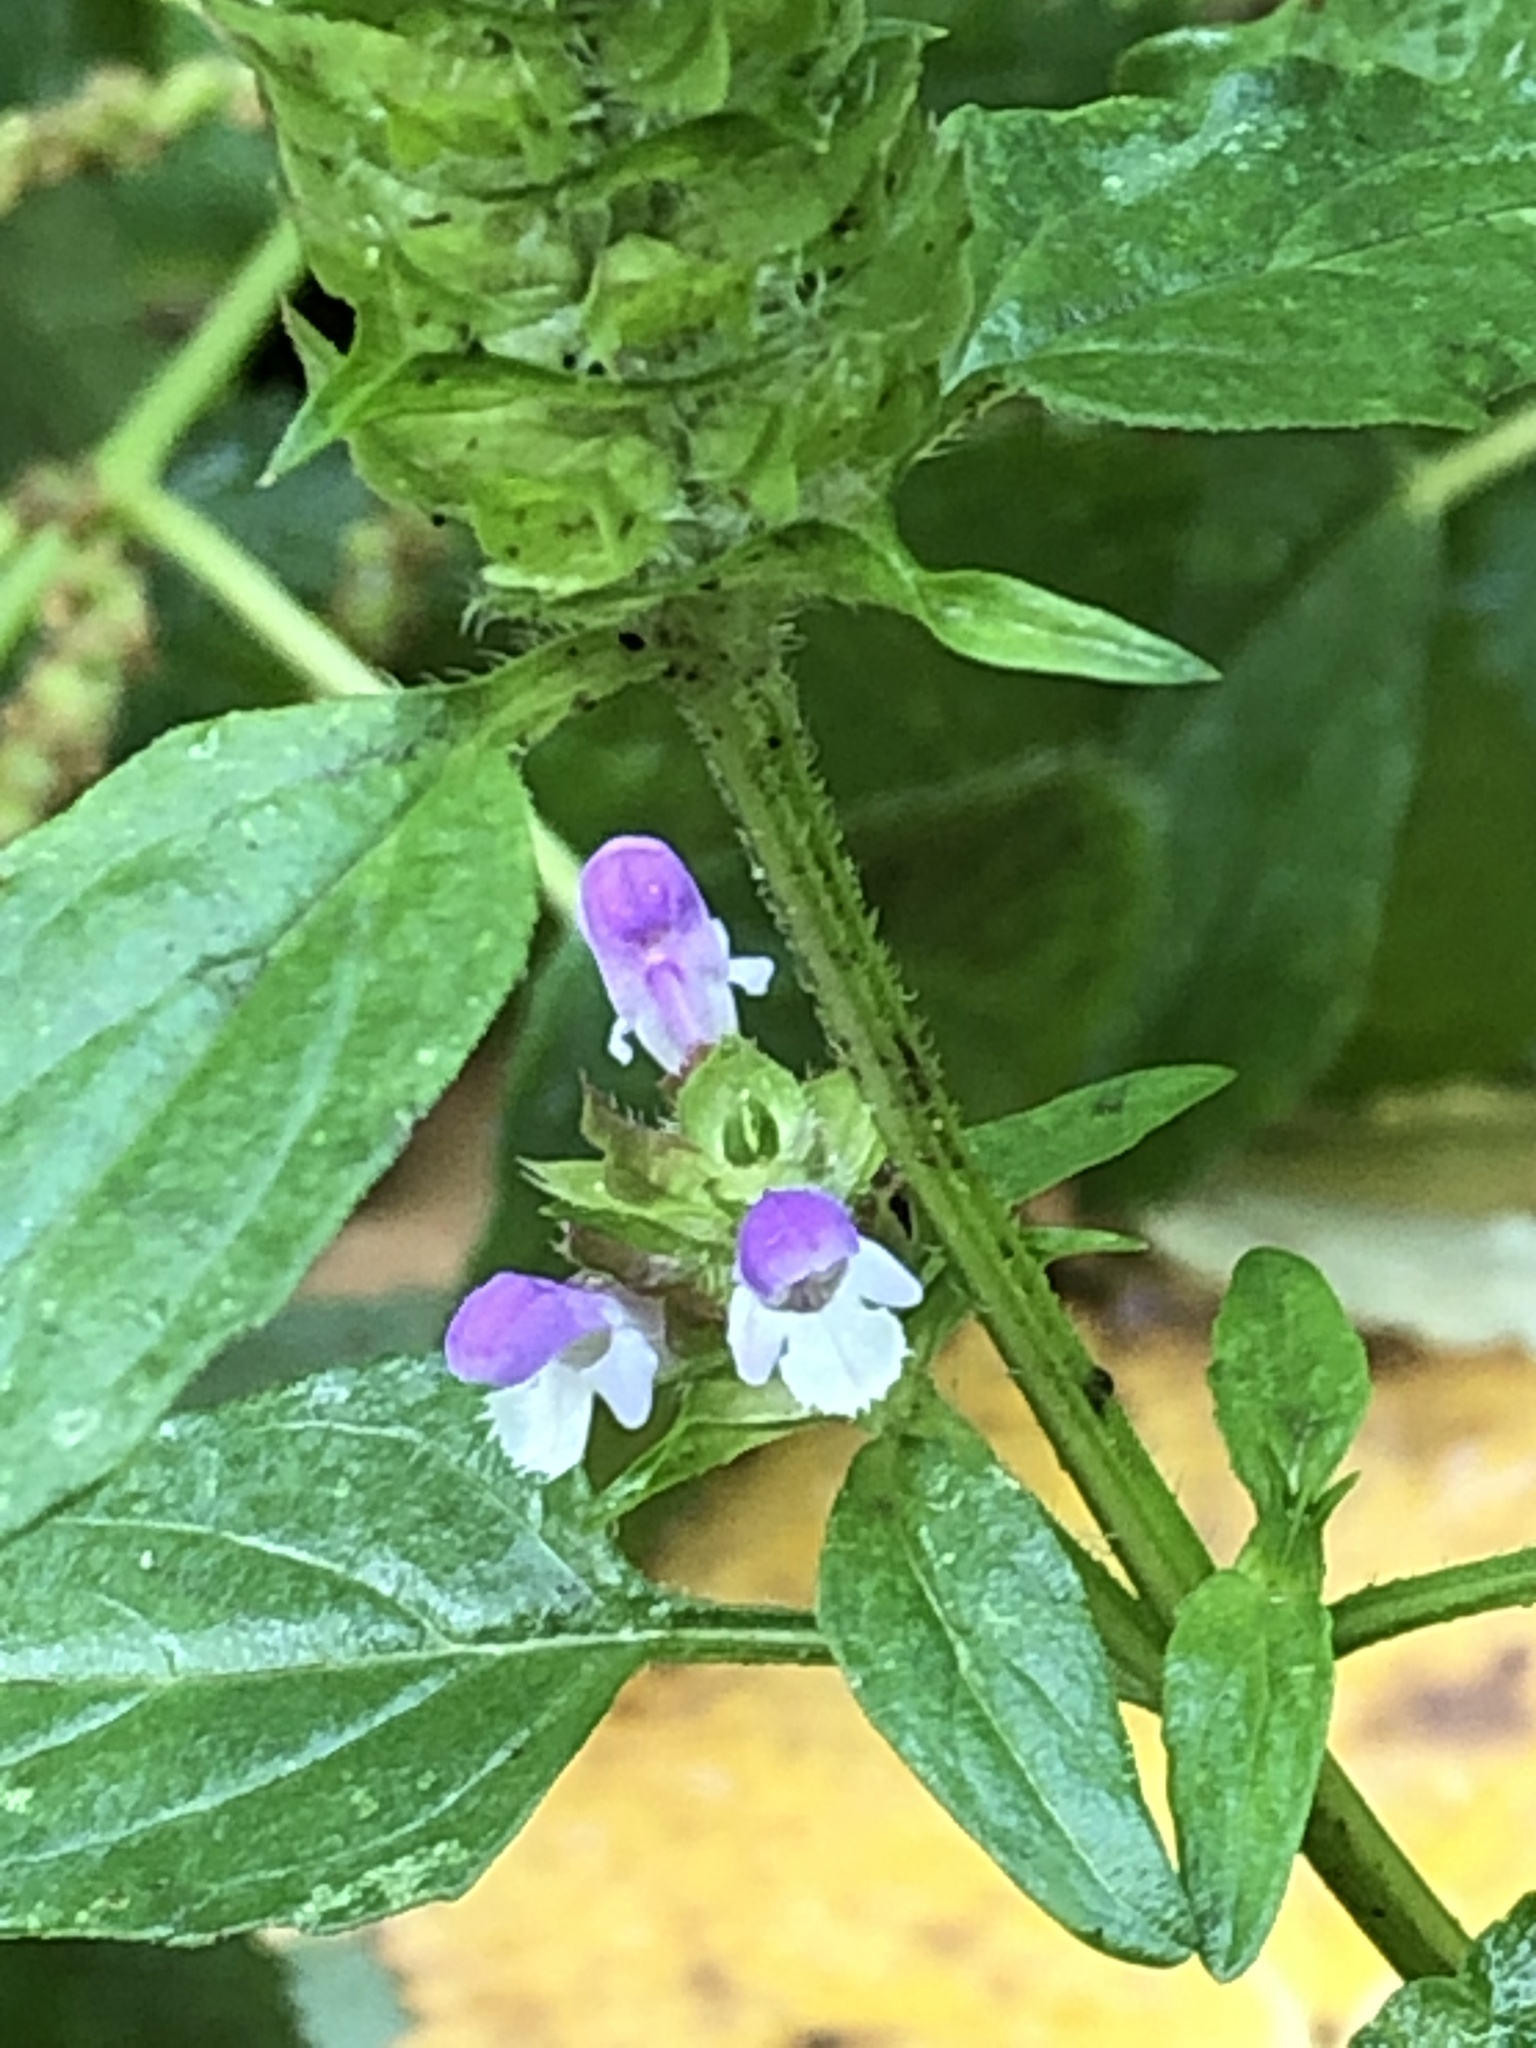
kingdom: Plantae
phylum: Tracheophyta
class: Magnoliopsida
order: Lamiales
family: Lamiaceae
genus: Prunella
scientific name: Prunella vulgaris
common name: Heal-all
